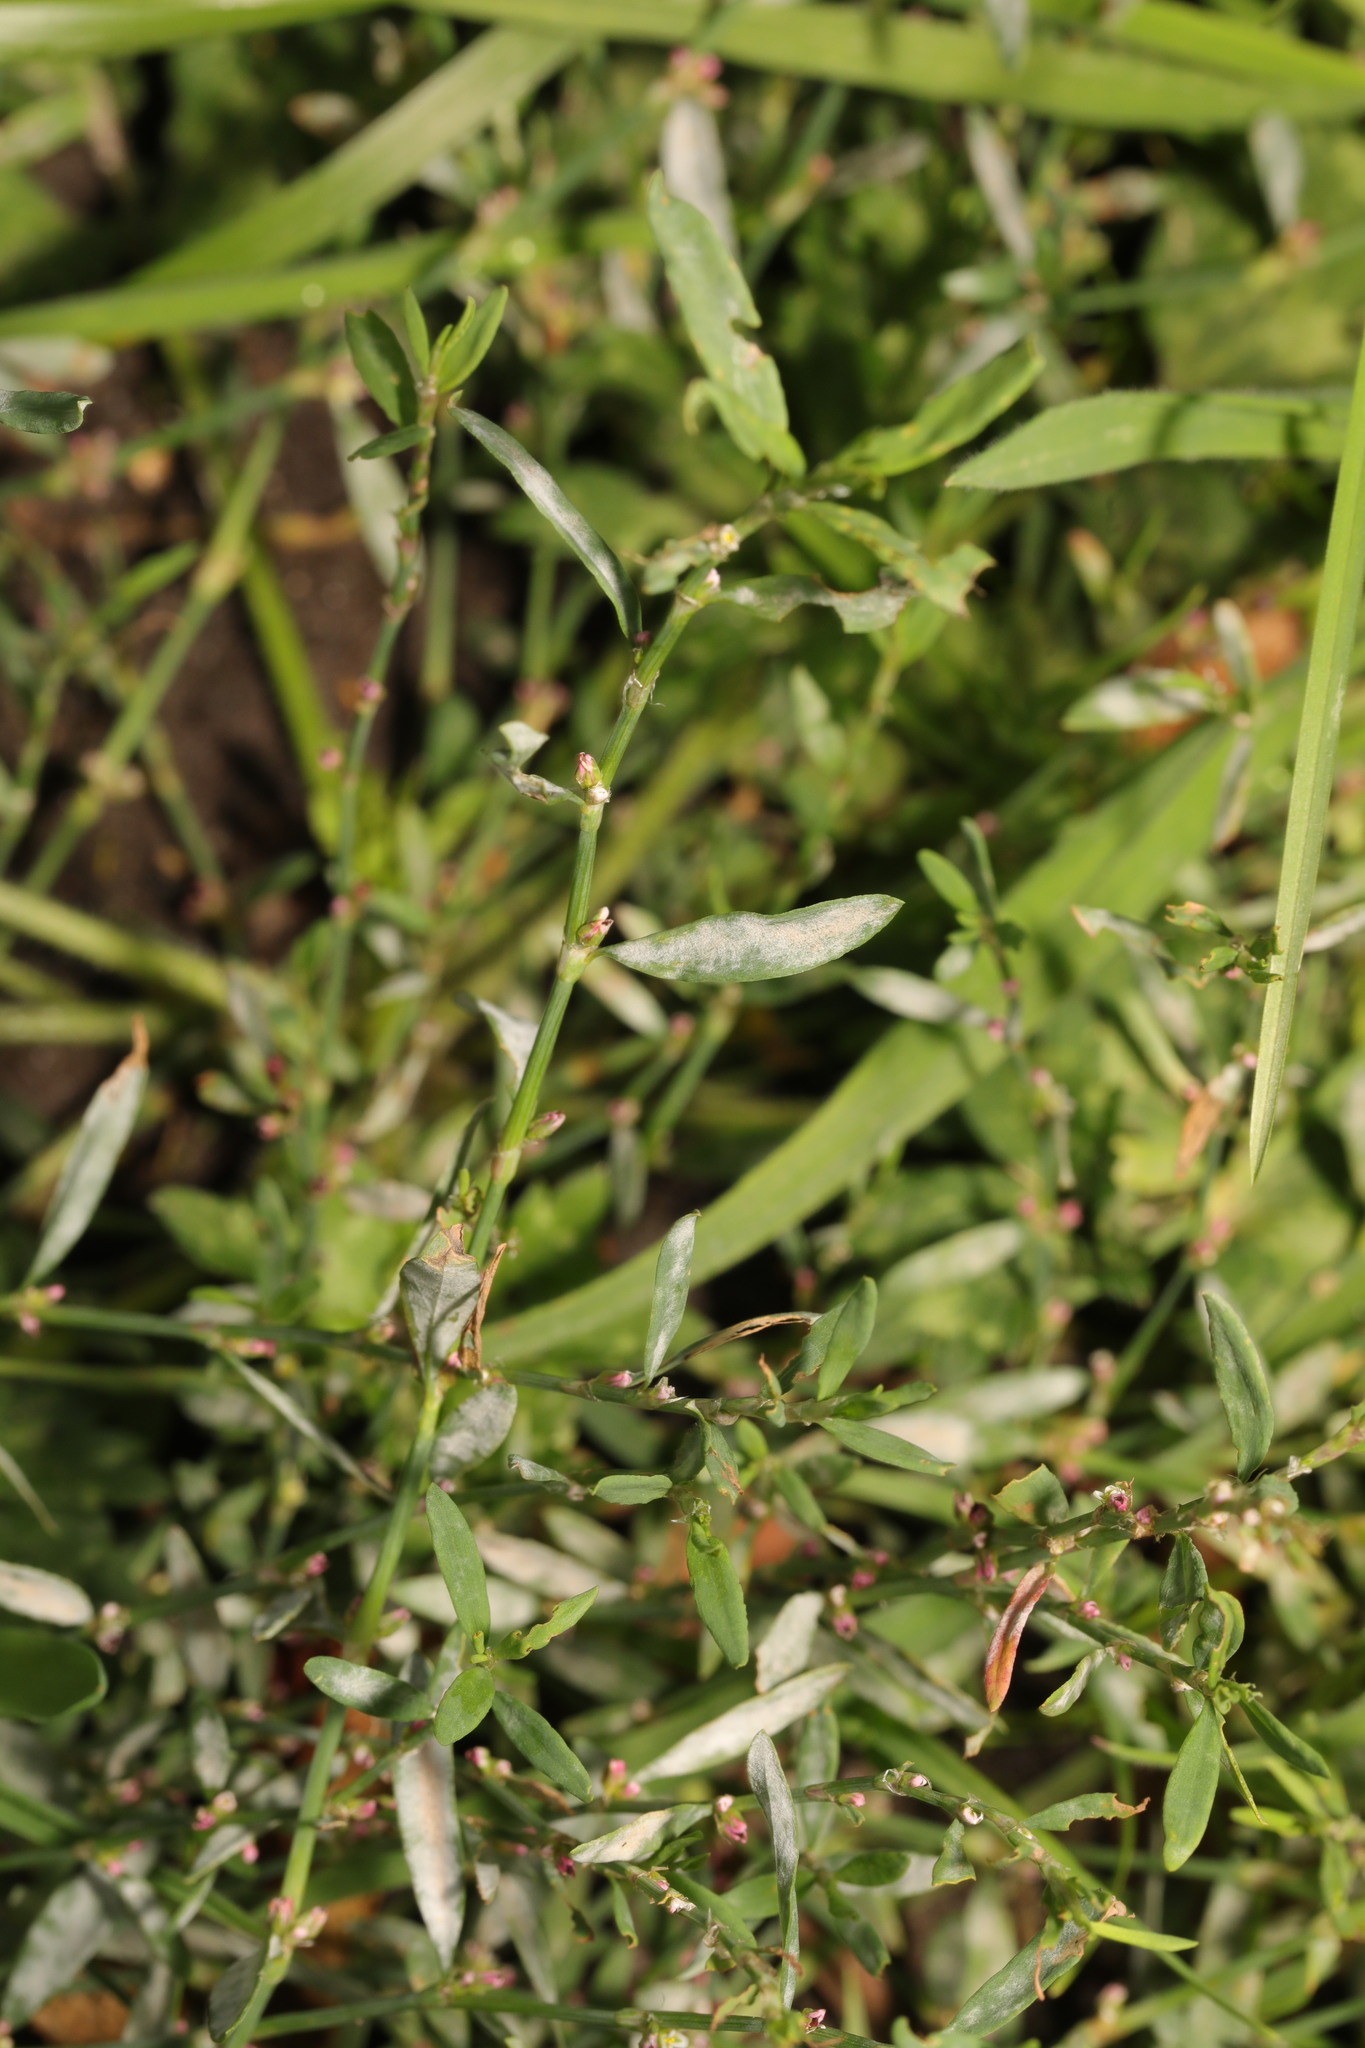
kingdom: Plantae
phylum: Tracheophyta
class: Magnoliopsida
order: Caryophyllales
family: Polygonaceae
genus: Polygonum
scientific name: Polygonum aviculare
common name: Prostrate knotweed
